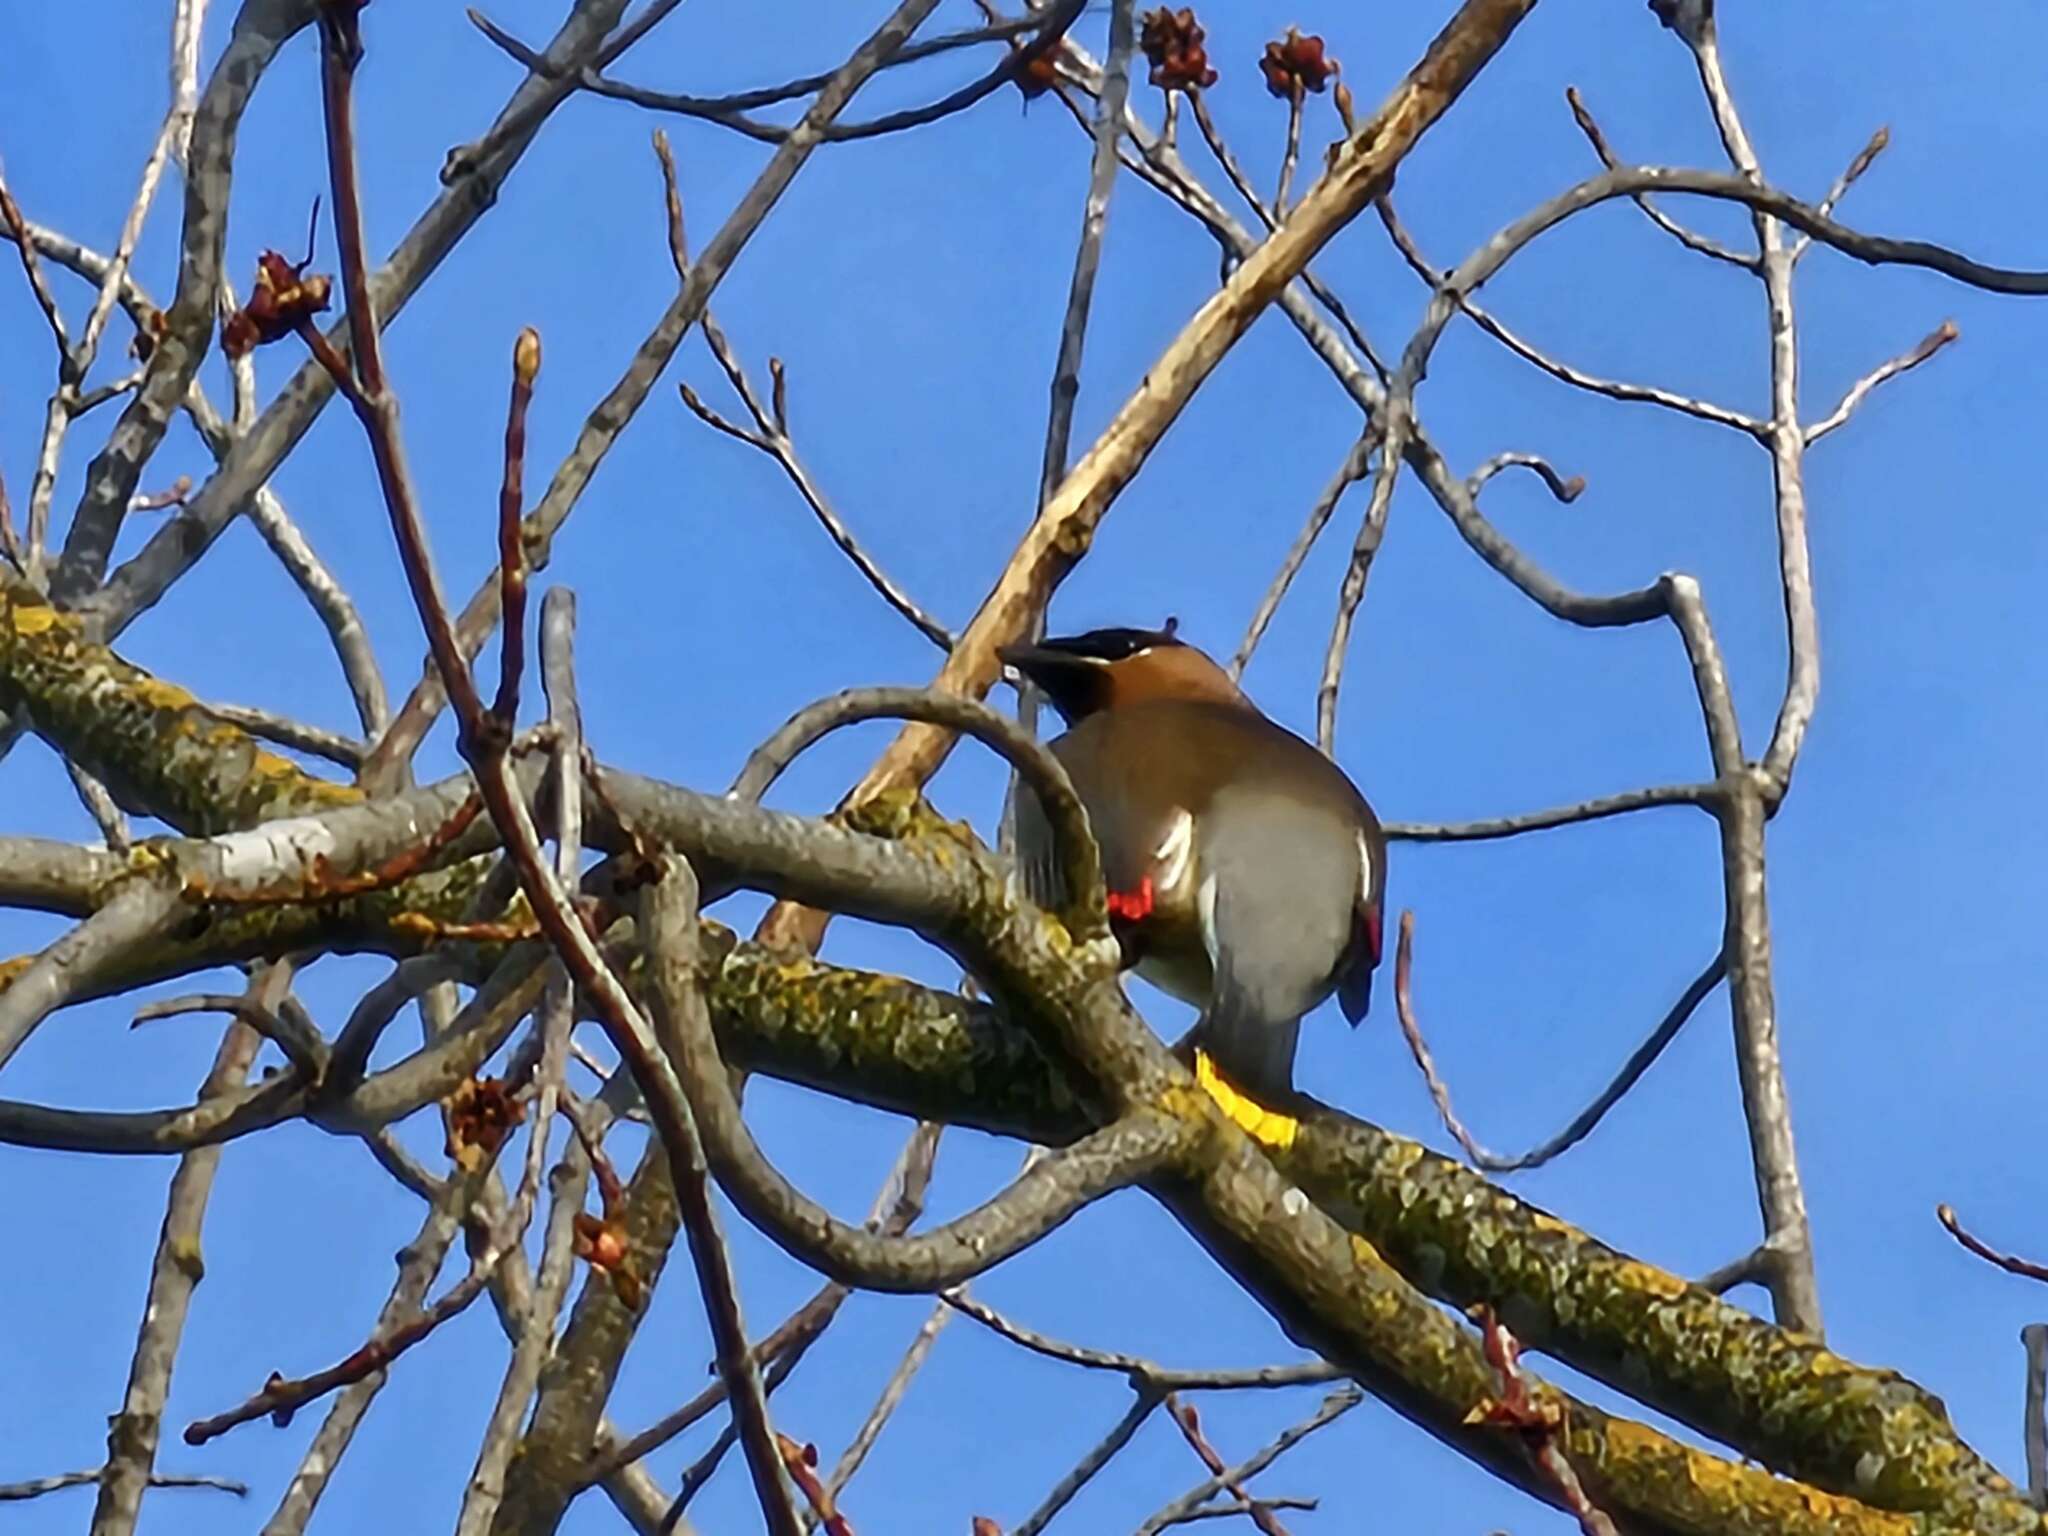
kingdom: Animalia
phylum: Chordata
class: Aves
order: Passeriformes
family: Bombycillidae
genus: Bombycilla
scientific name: Bombycilla cedrorum
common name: Cedar waxwing
